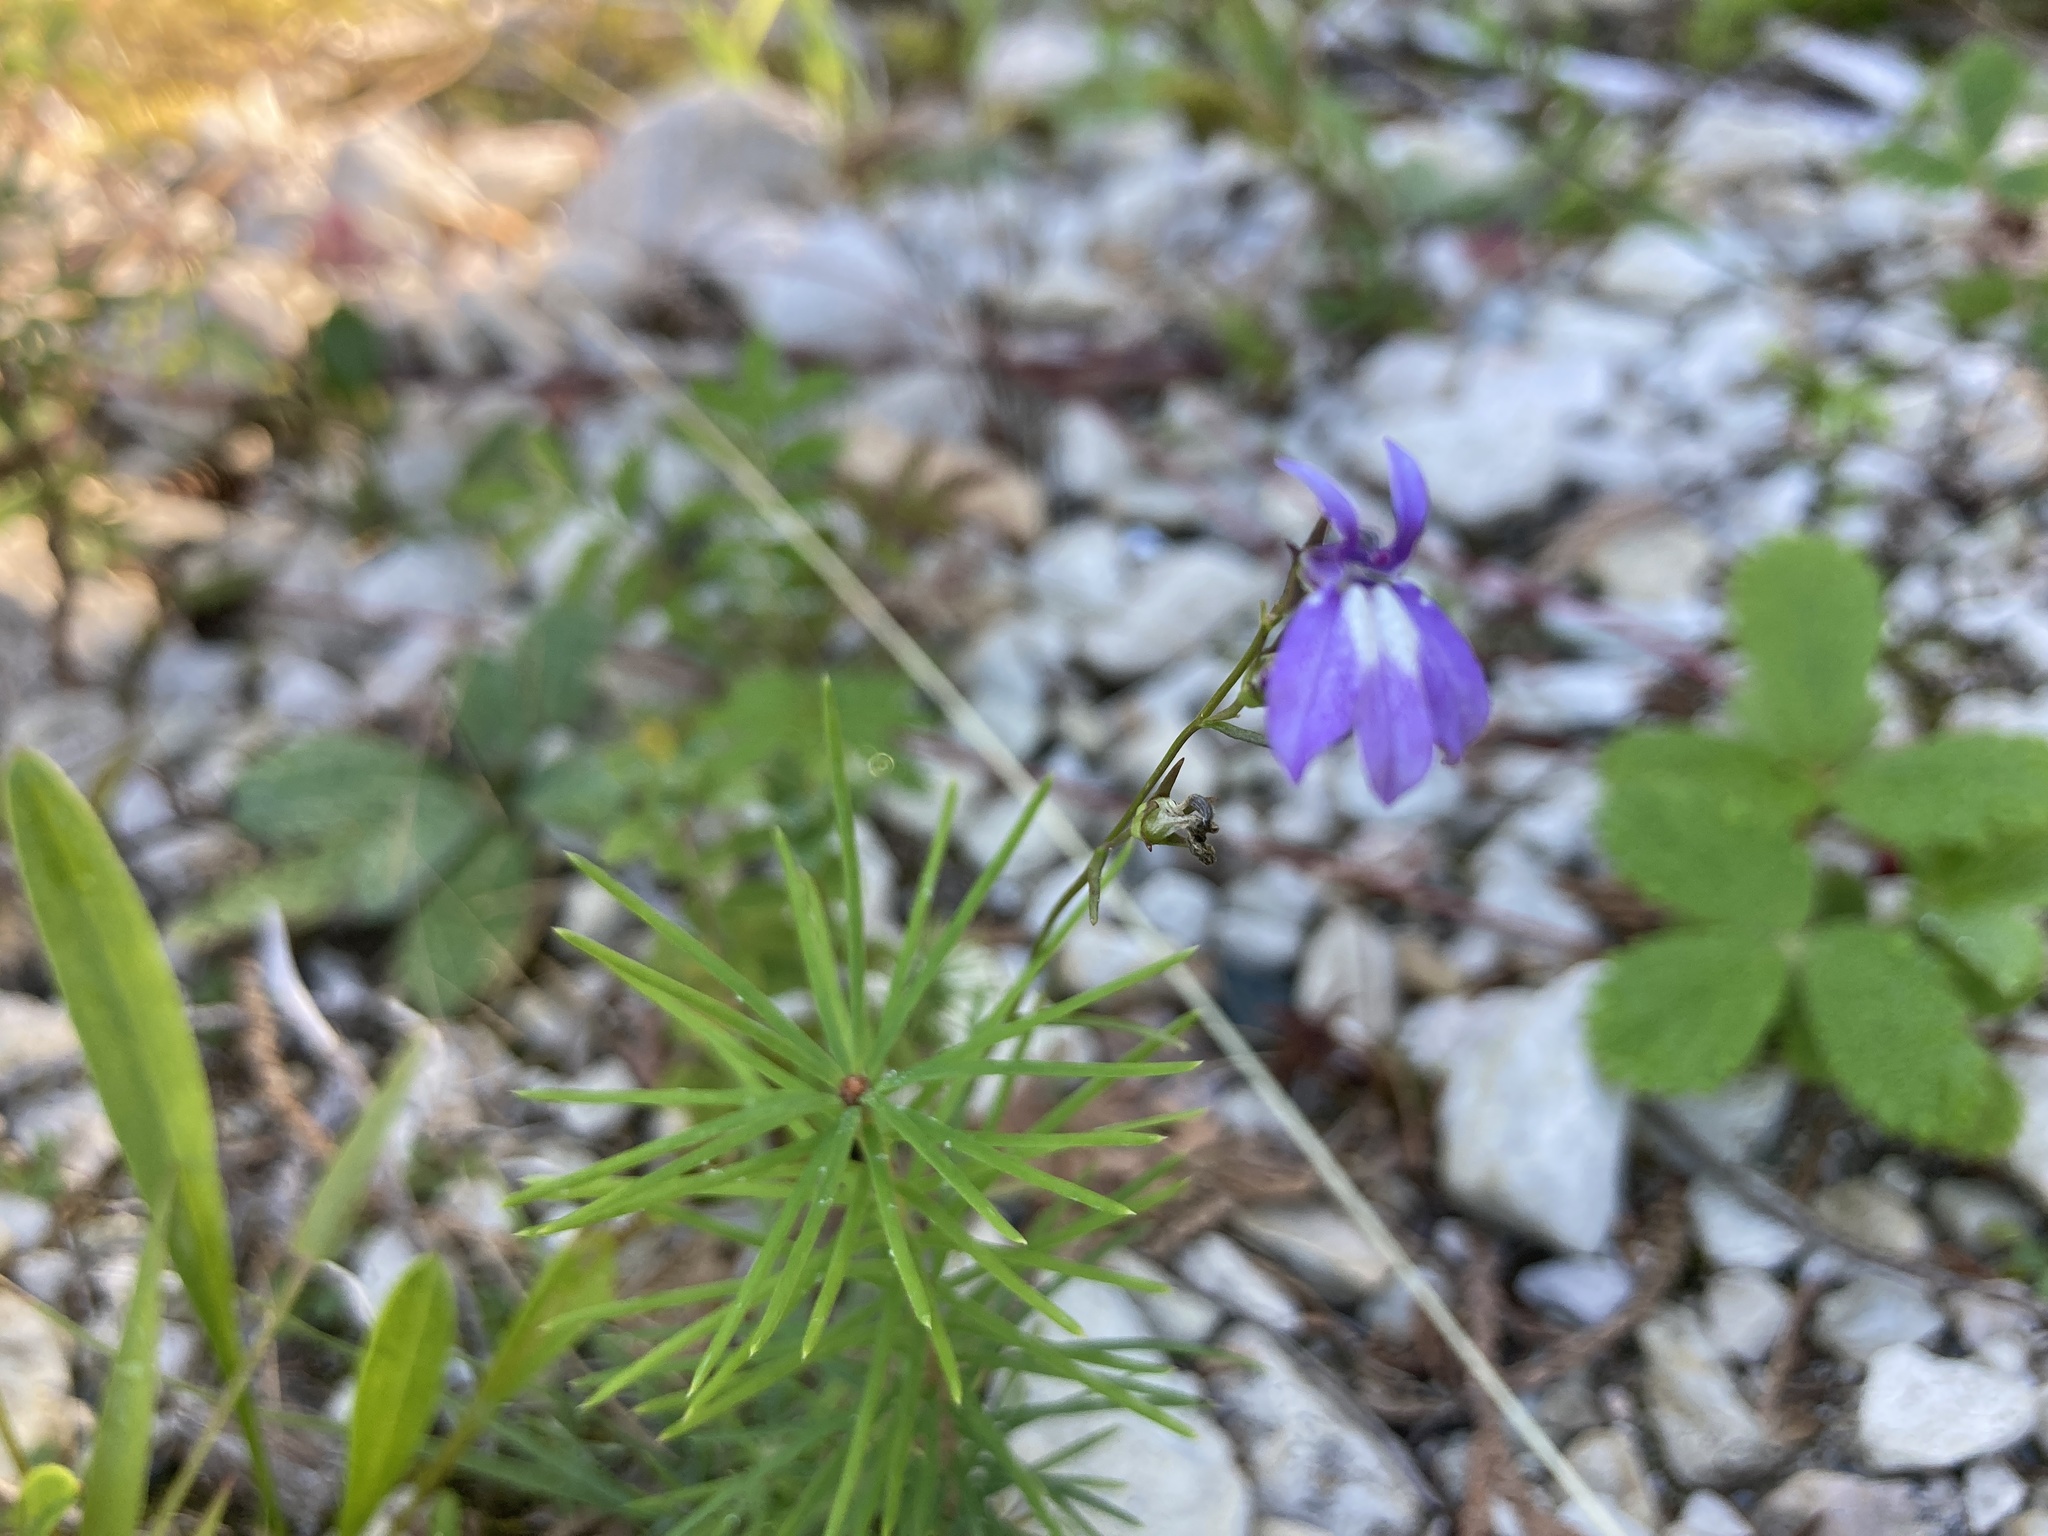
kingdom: Plantae
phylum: Tracheophyta
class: Magnoliopsida
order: Asterales
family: Campanulaceae
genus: Lobelia
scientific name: Lobelia kalmii
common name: Kalm's lobelia
